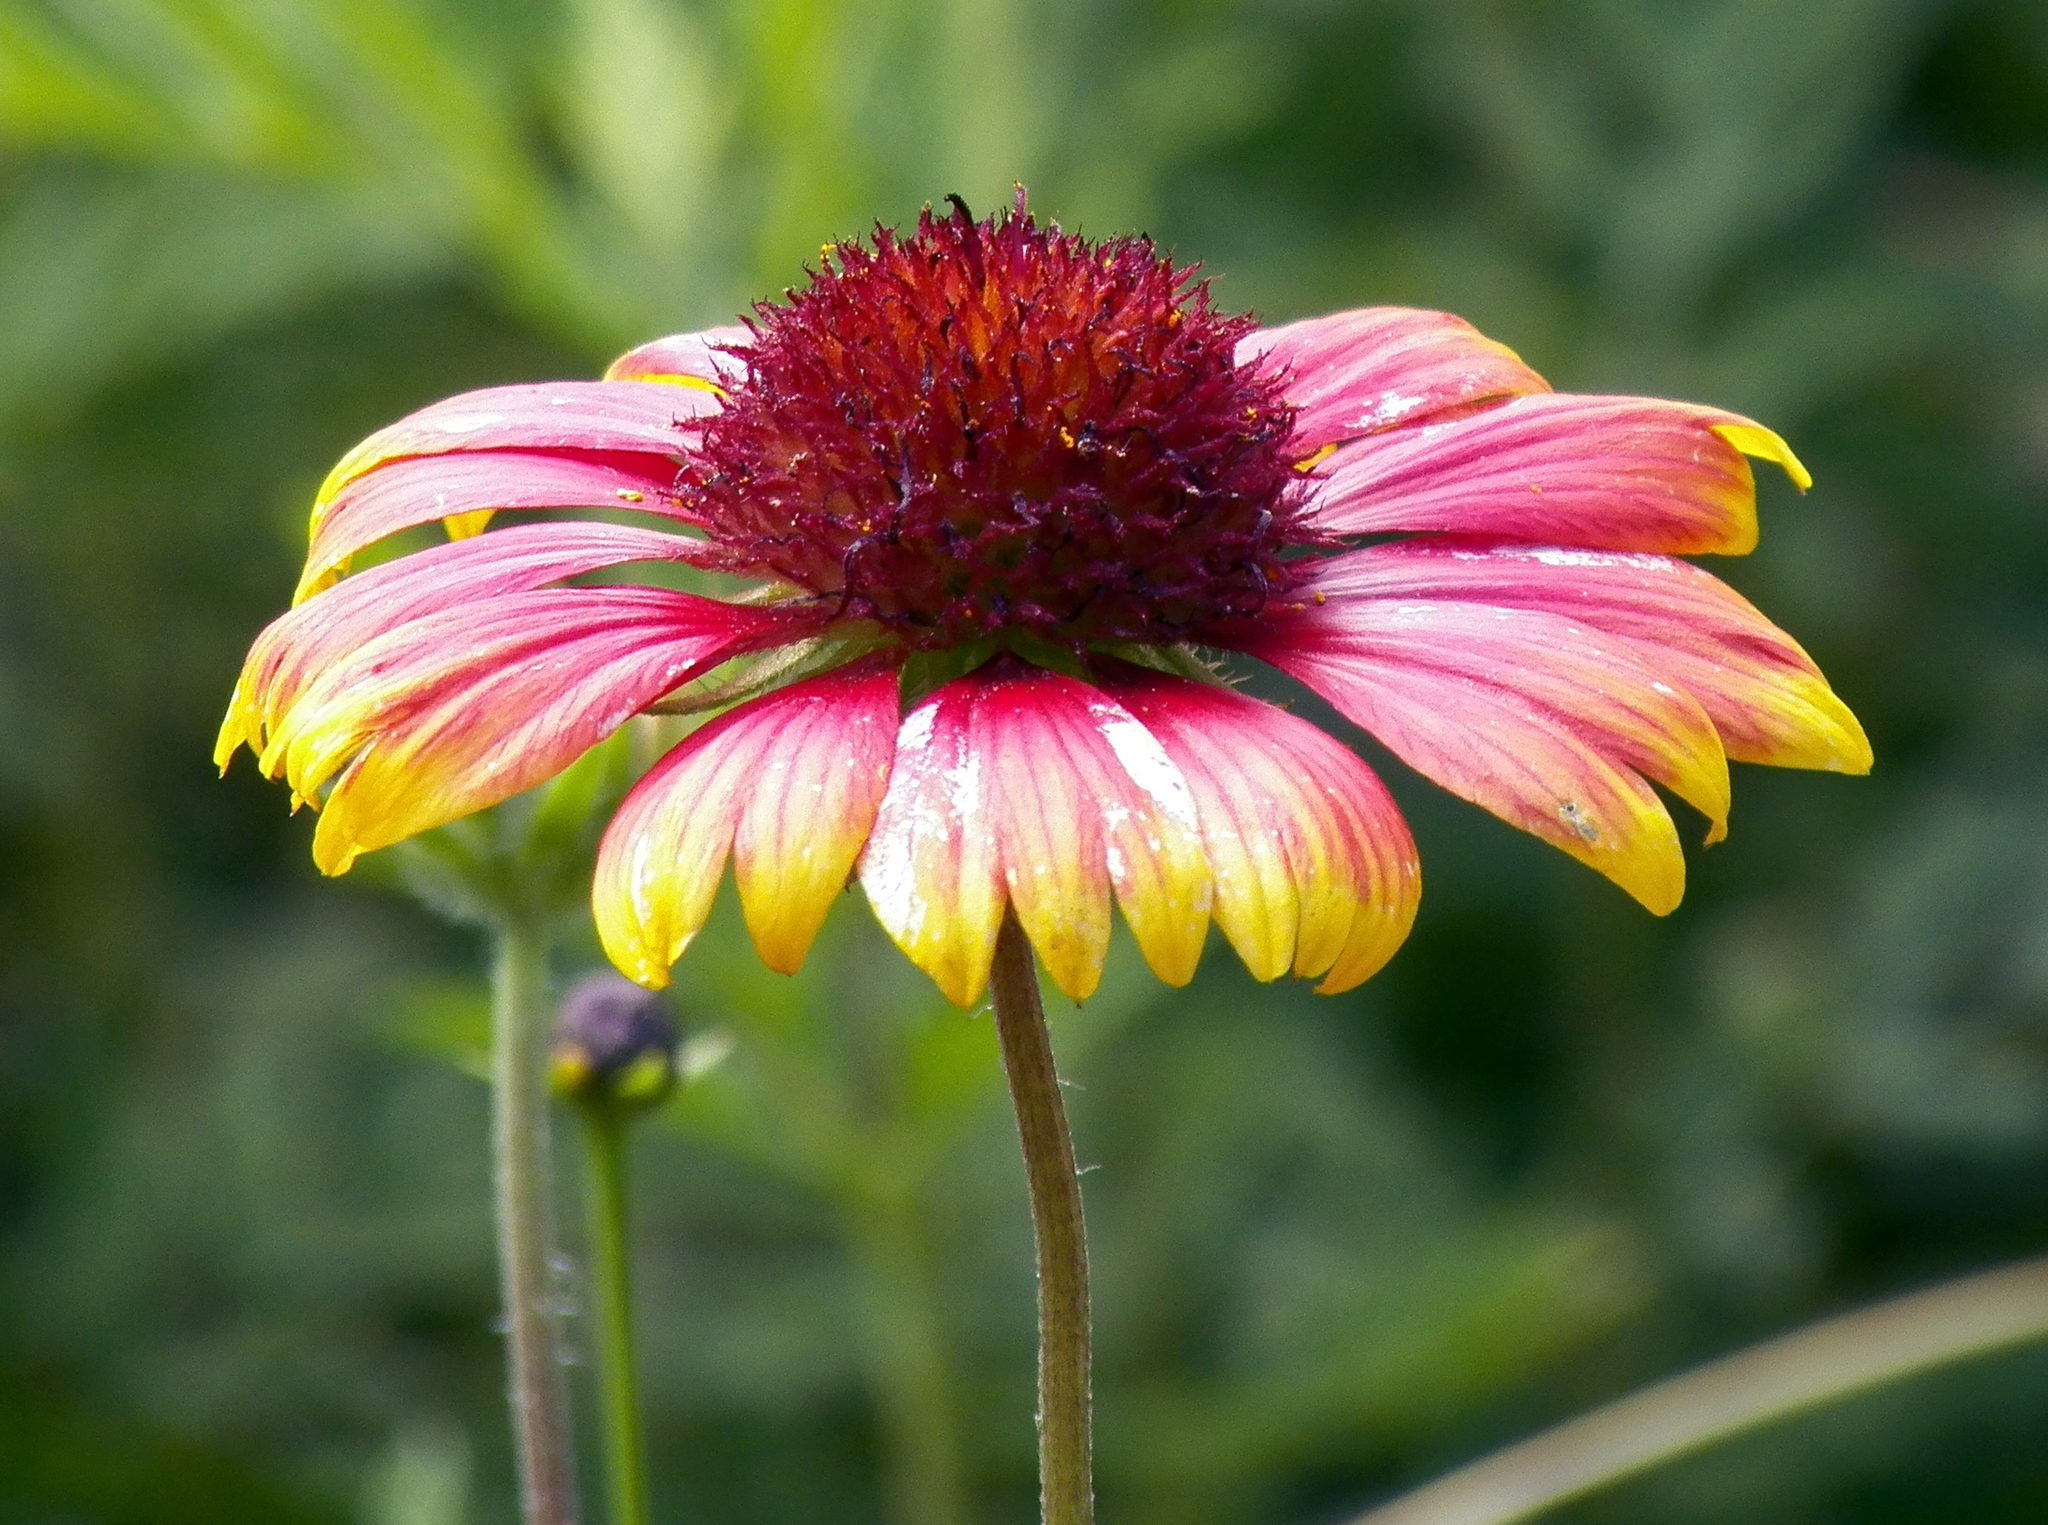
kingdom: Plantae
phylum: Tracheophyta
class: Magnoliopsida
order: Asterales
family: Asteraceae
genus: Gaillardia
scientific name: Gaillardia pulchella
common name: Firewheel
